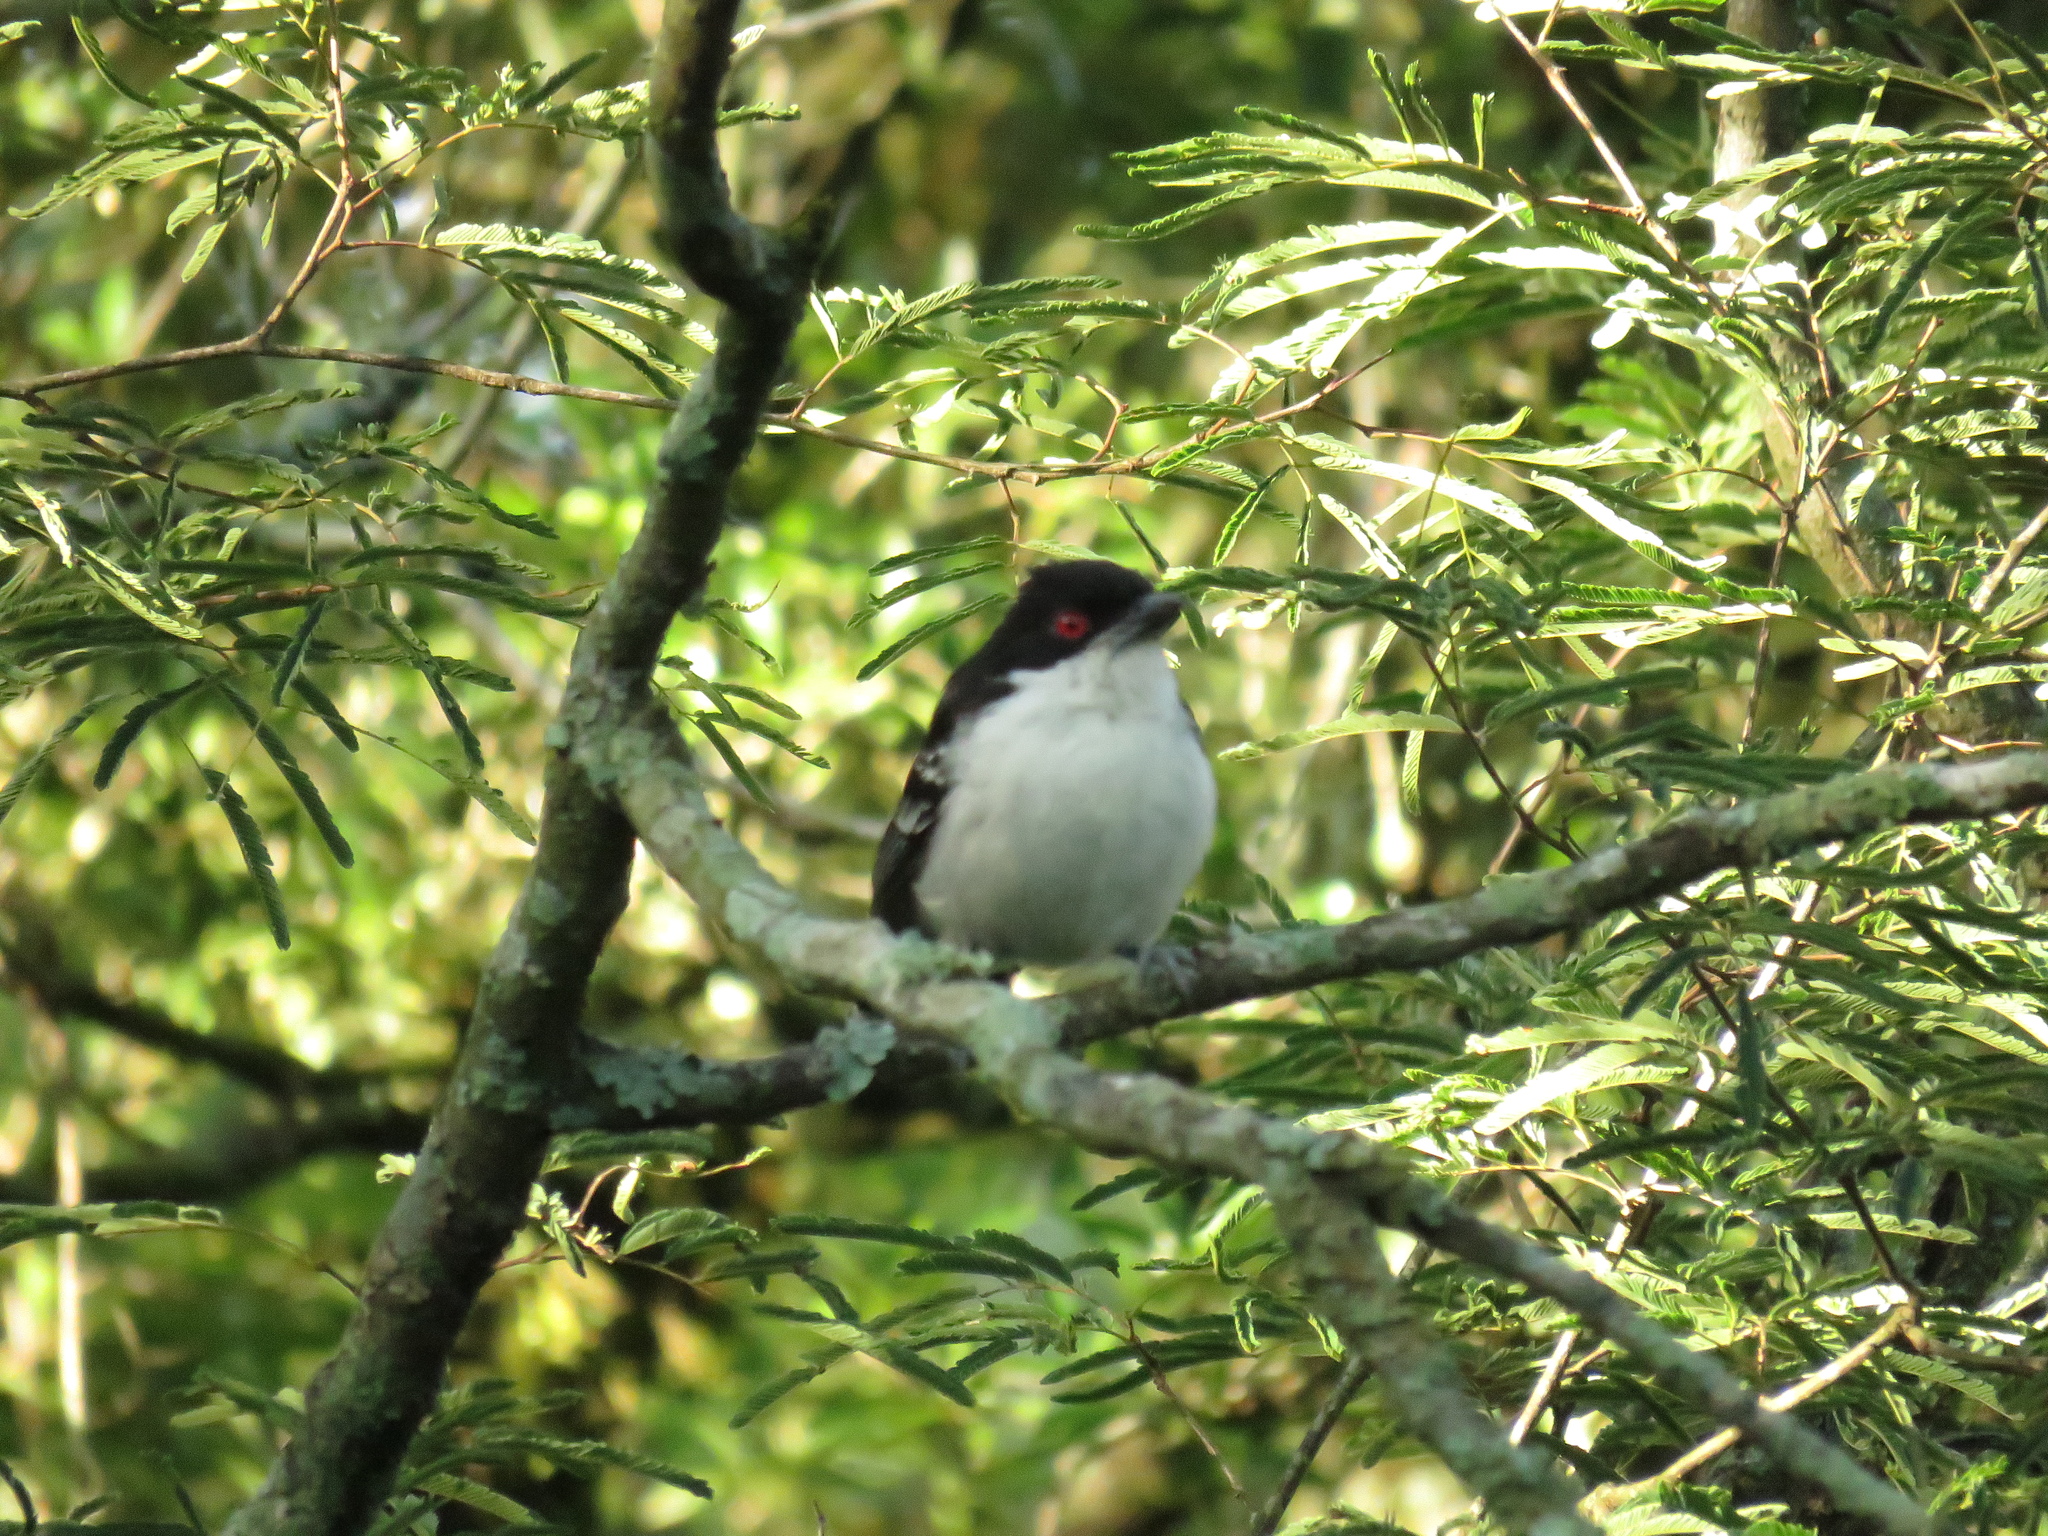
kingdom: Animalia
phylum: Chordata
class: Aves
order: Passeriformes
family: Thamnophilidae
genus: Taraba
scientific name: Taraba major
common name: Great antshrike
